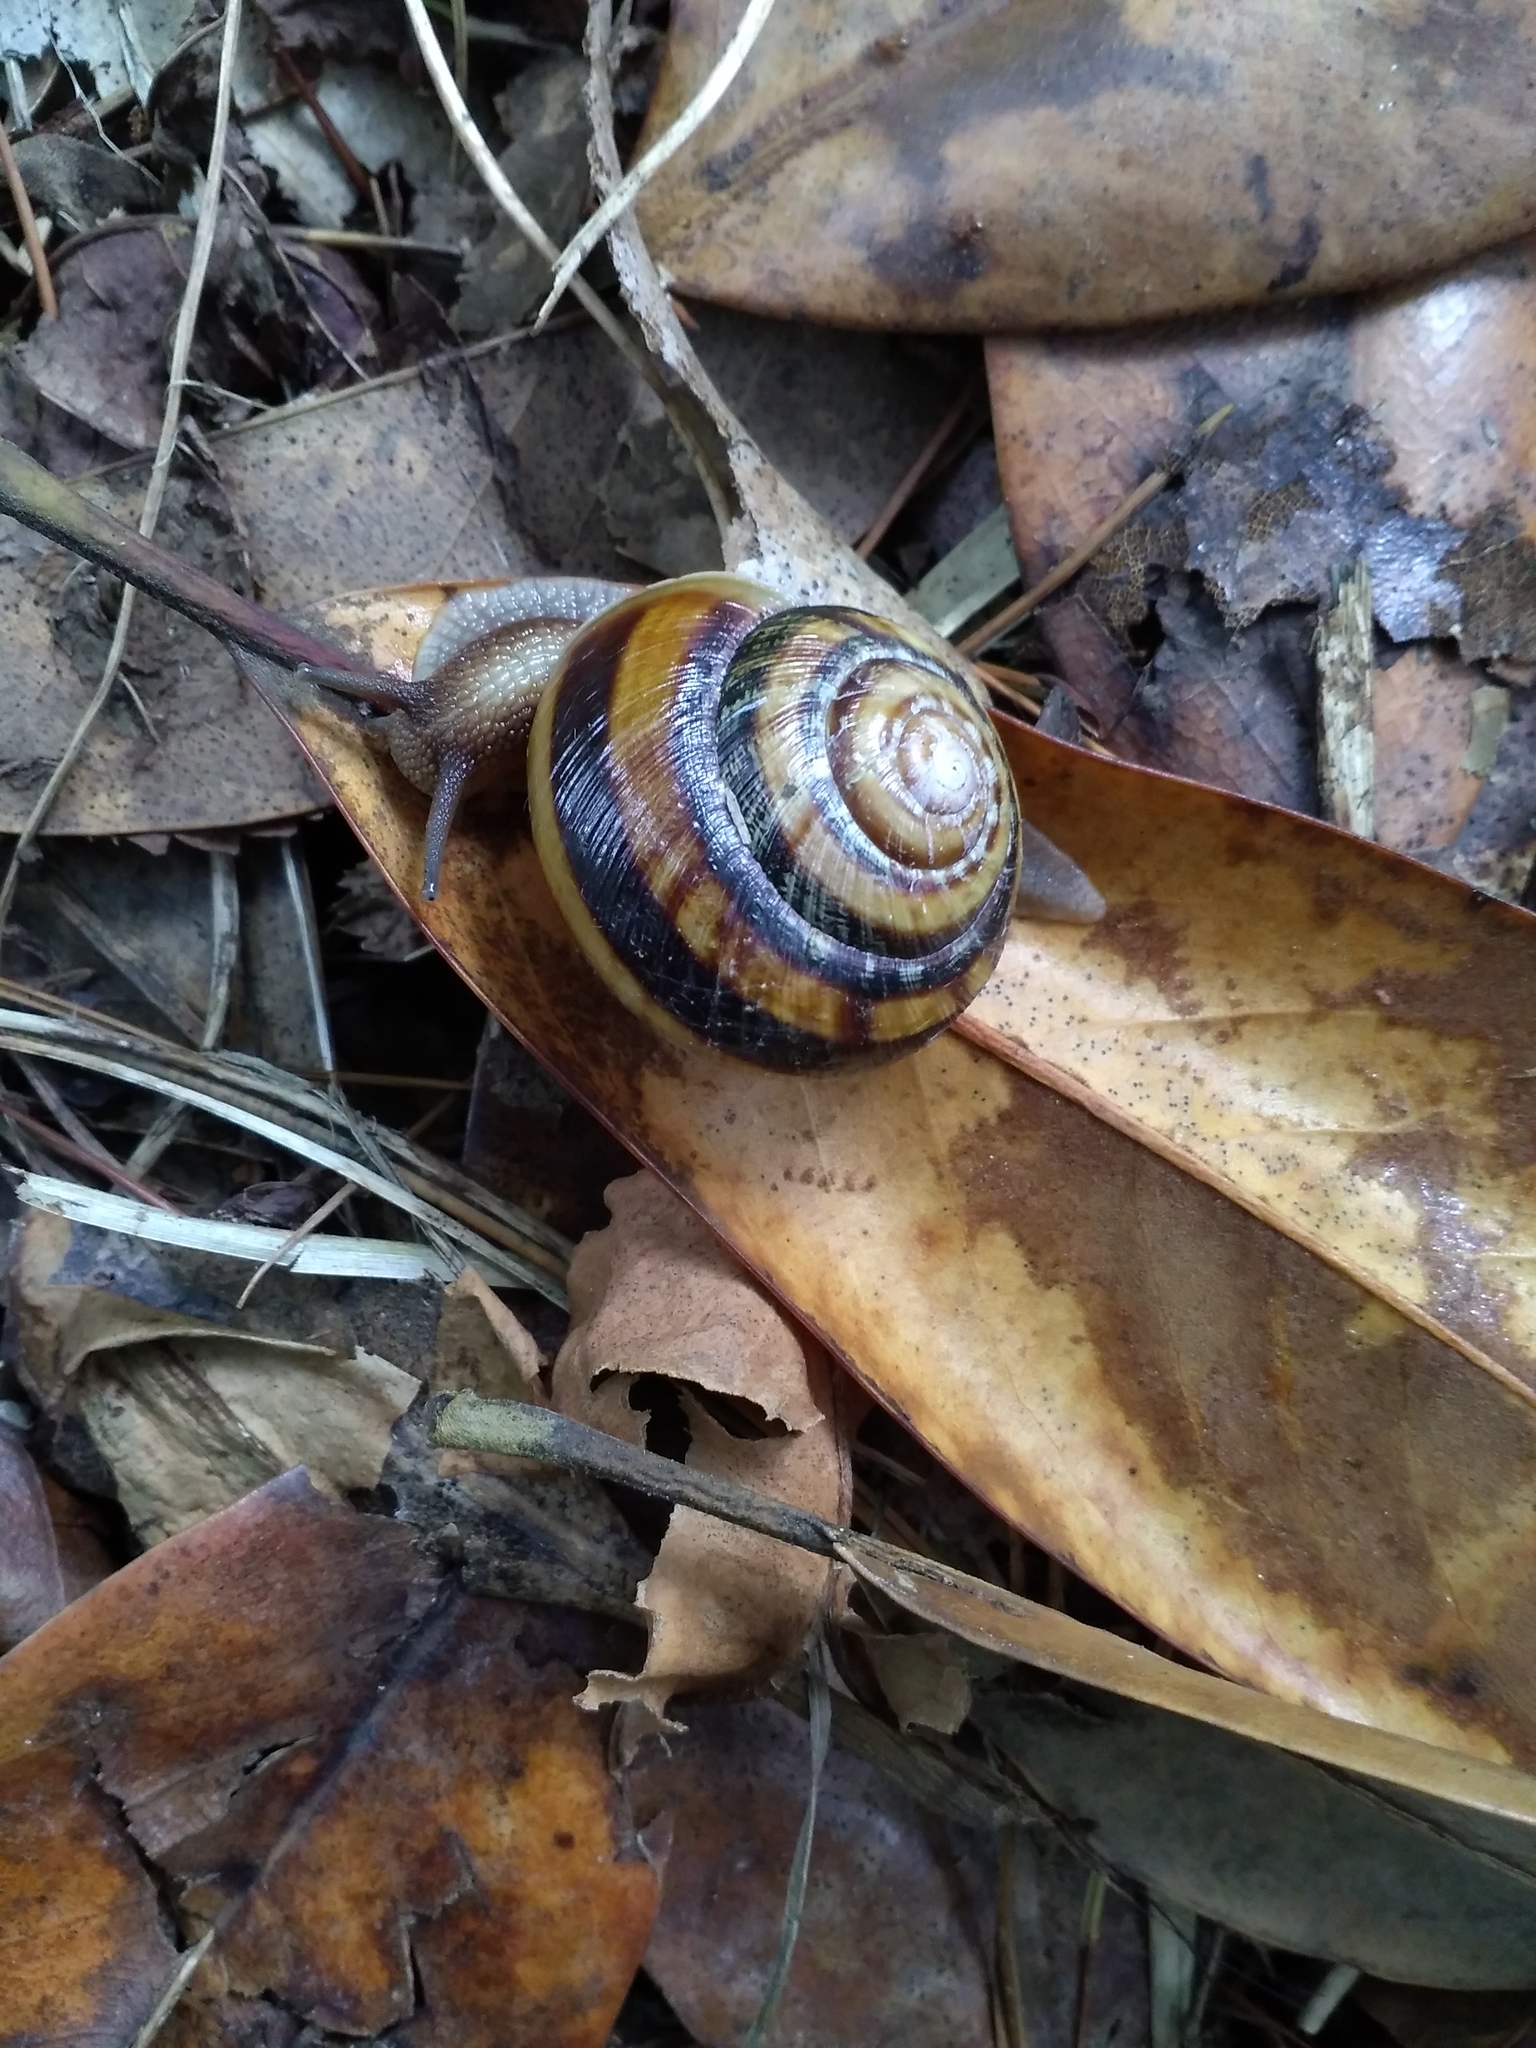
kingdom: Animalia
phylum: Mollusca
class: Gastropoda
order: Stylommatophora
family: Helicidae
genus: Caucasotachea
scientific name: Caucasotachea atrolabiata
